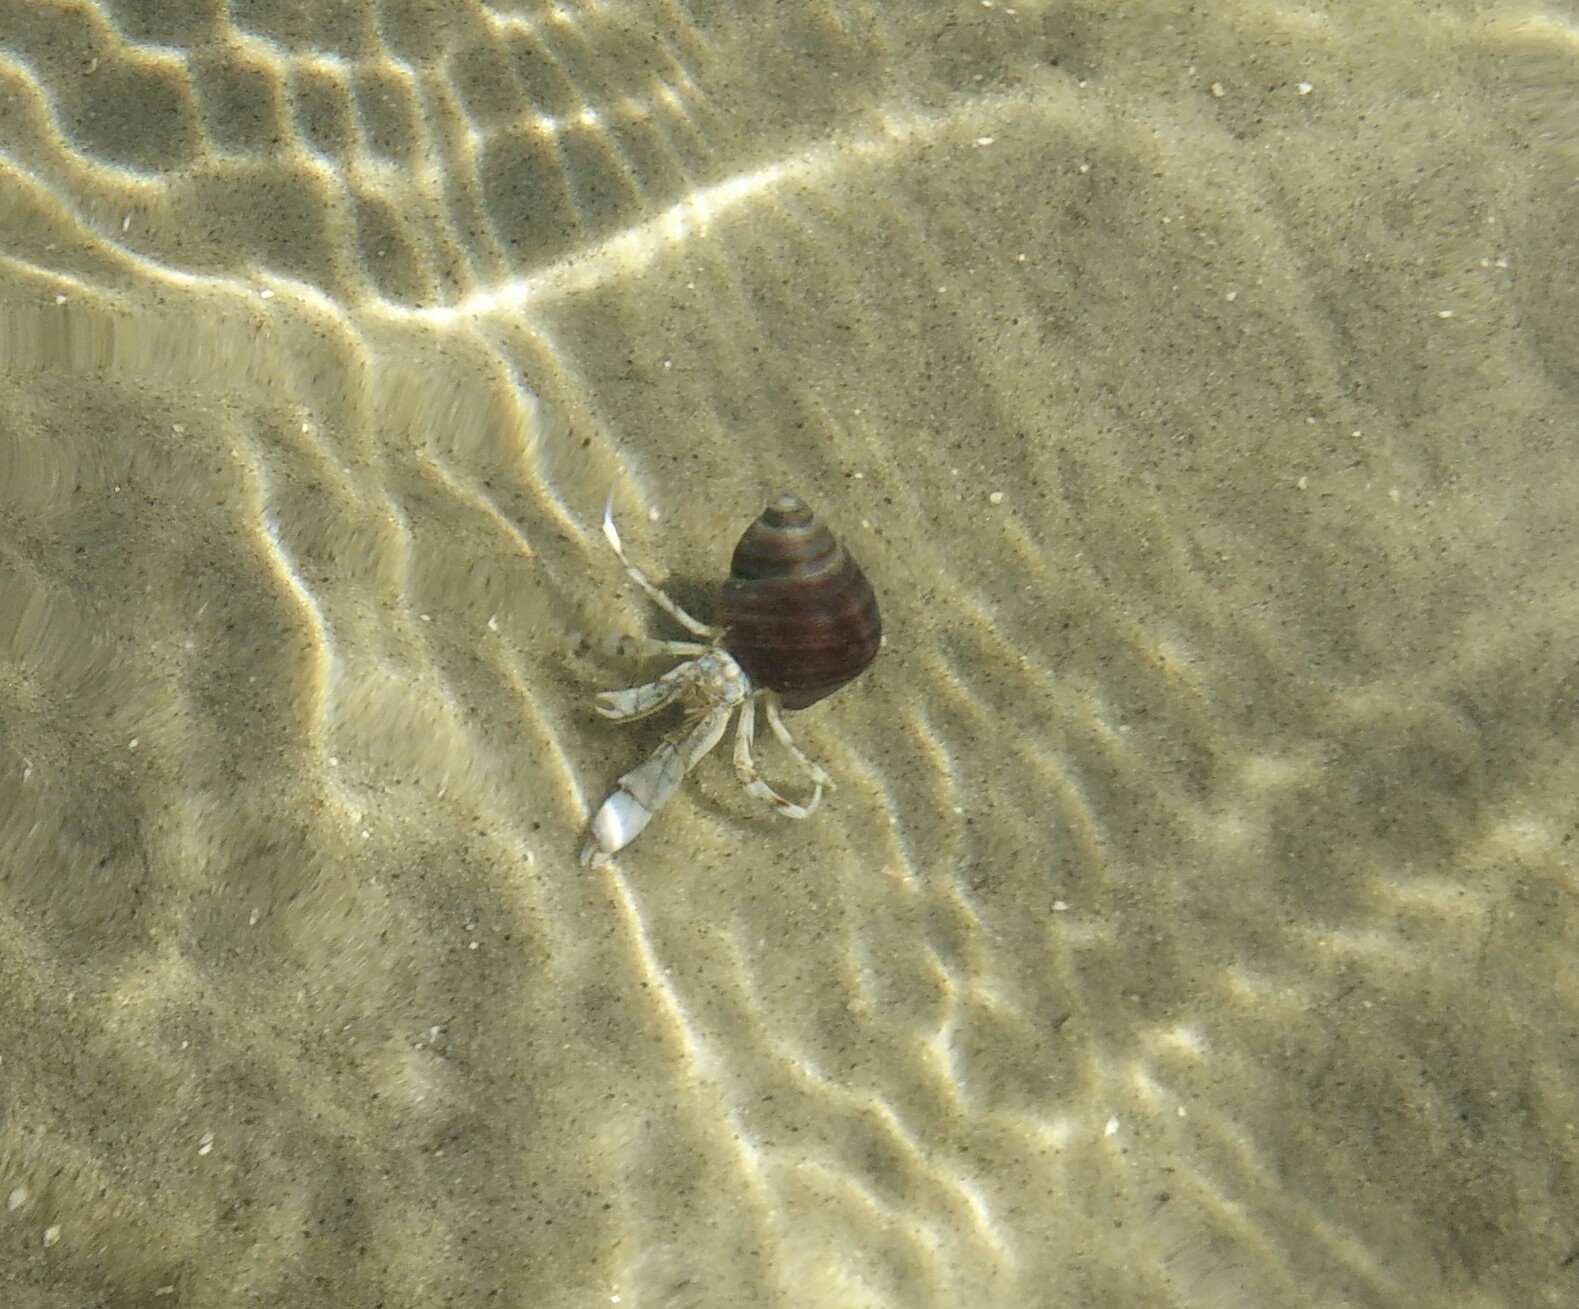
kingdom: Animalia
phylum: Arthropoda
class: Malacostraca
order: Decapoda
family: Diogenidae
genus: Diogenes
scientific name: Diogenes pugilator
